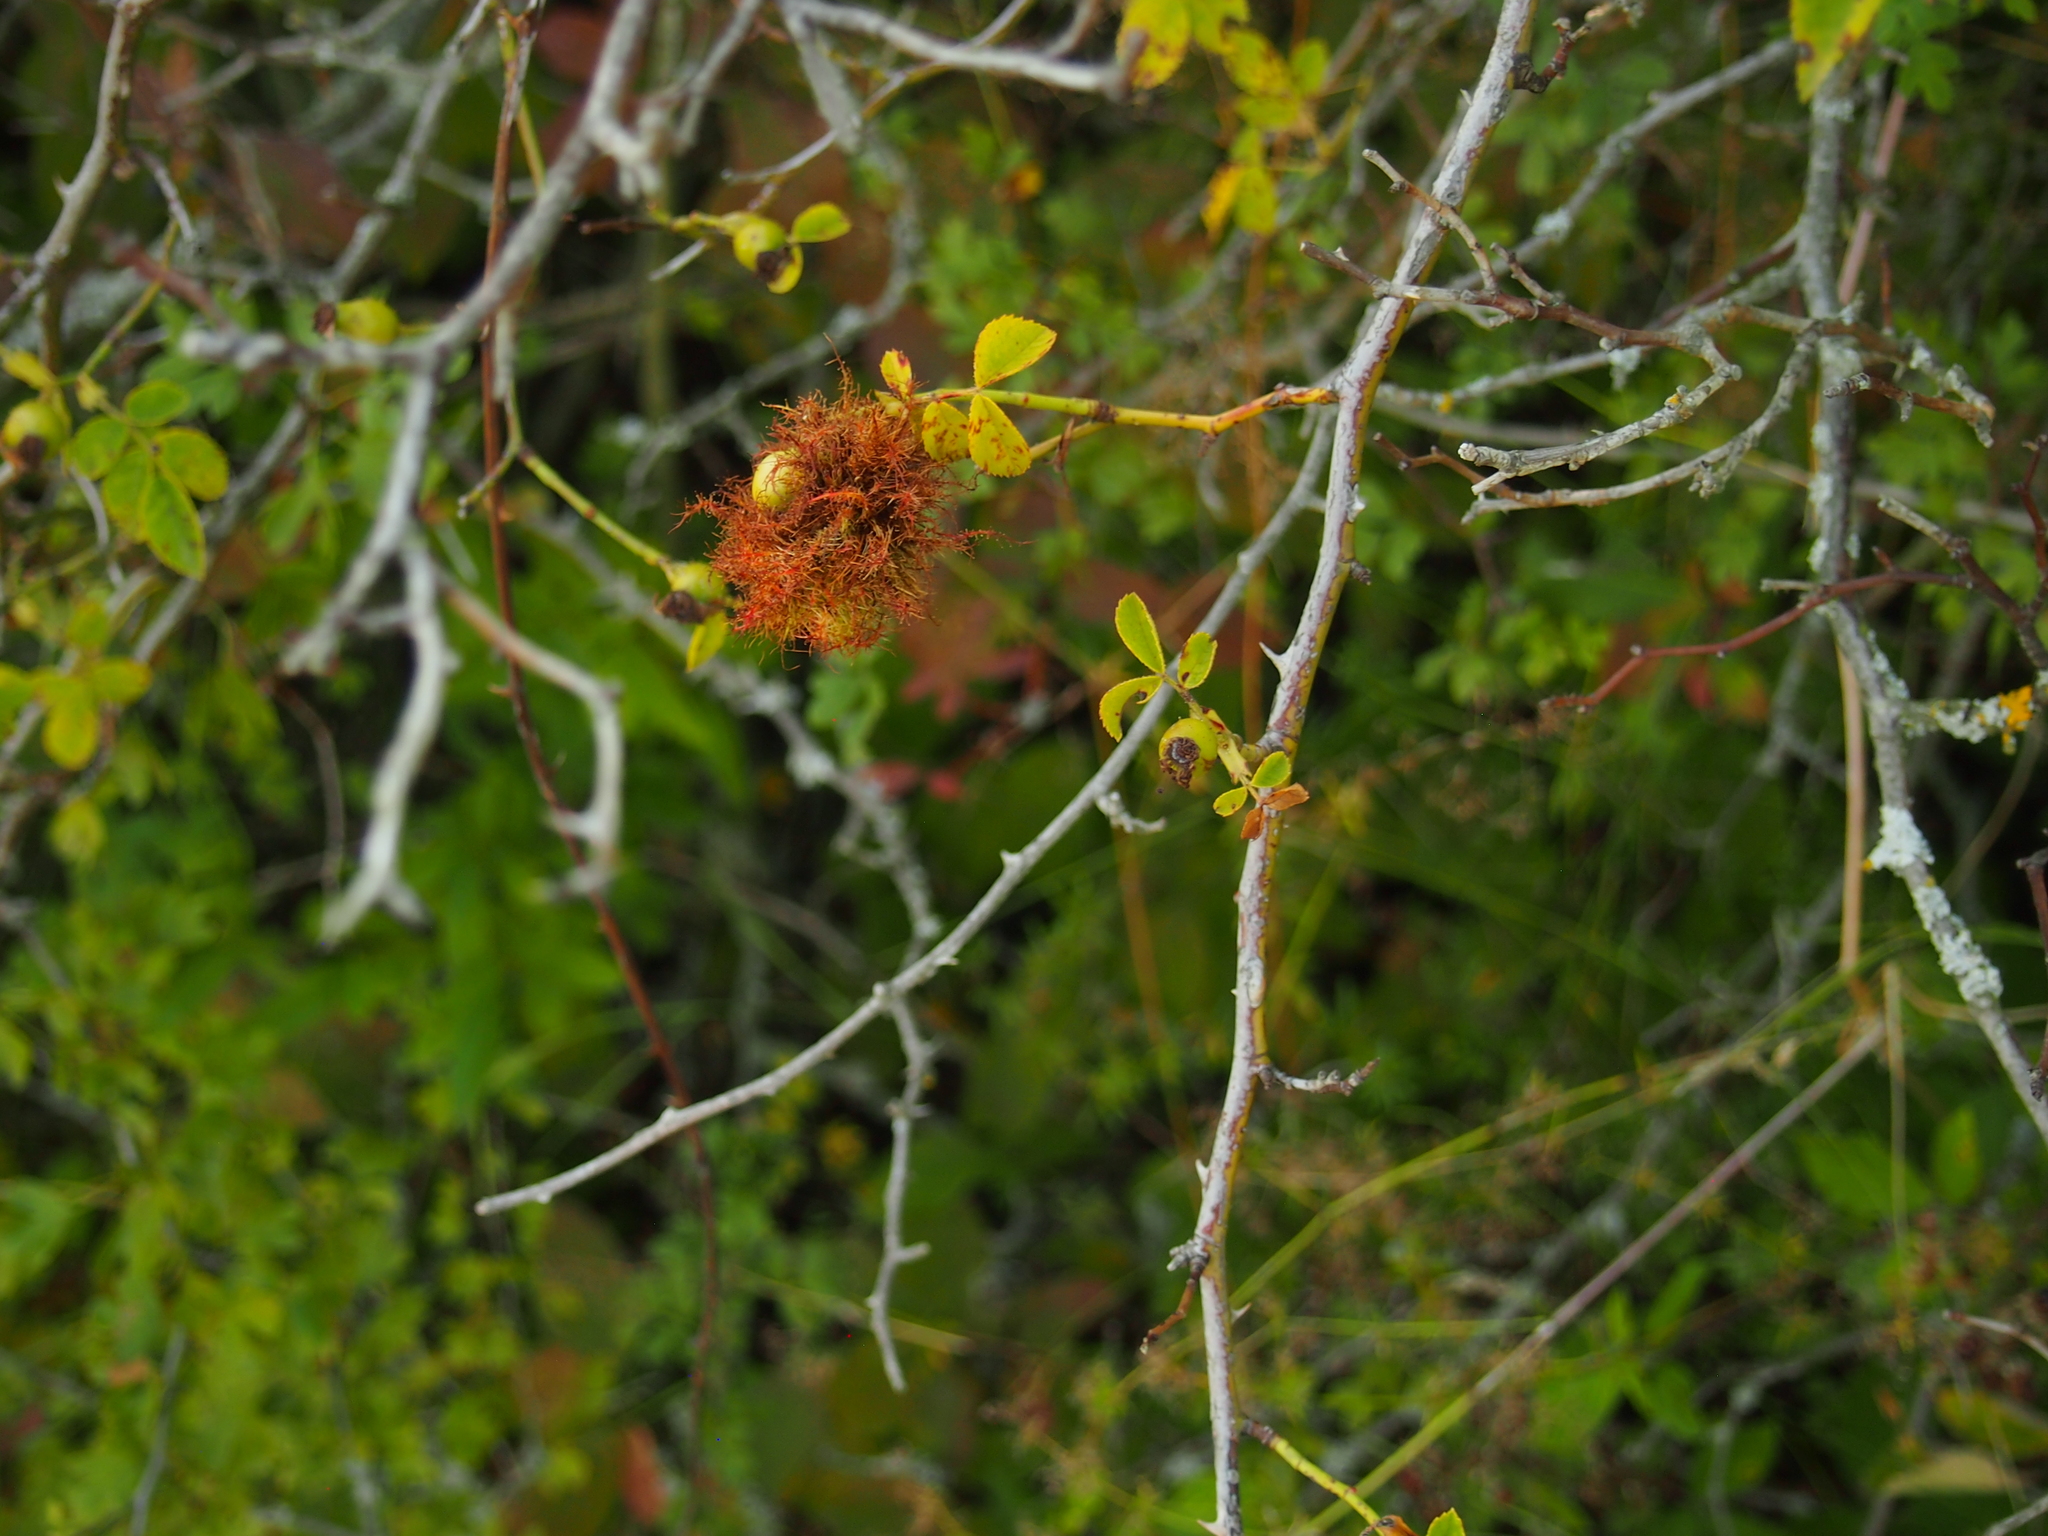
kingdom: Animalia
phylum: Arthropoda
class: Insecta
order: Hymenoptera
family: Cynipidae
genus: Diplolepis
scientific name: Diplolepis rosae
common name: Bedeguar gall
